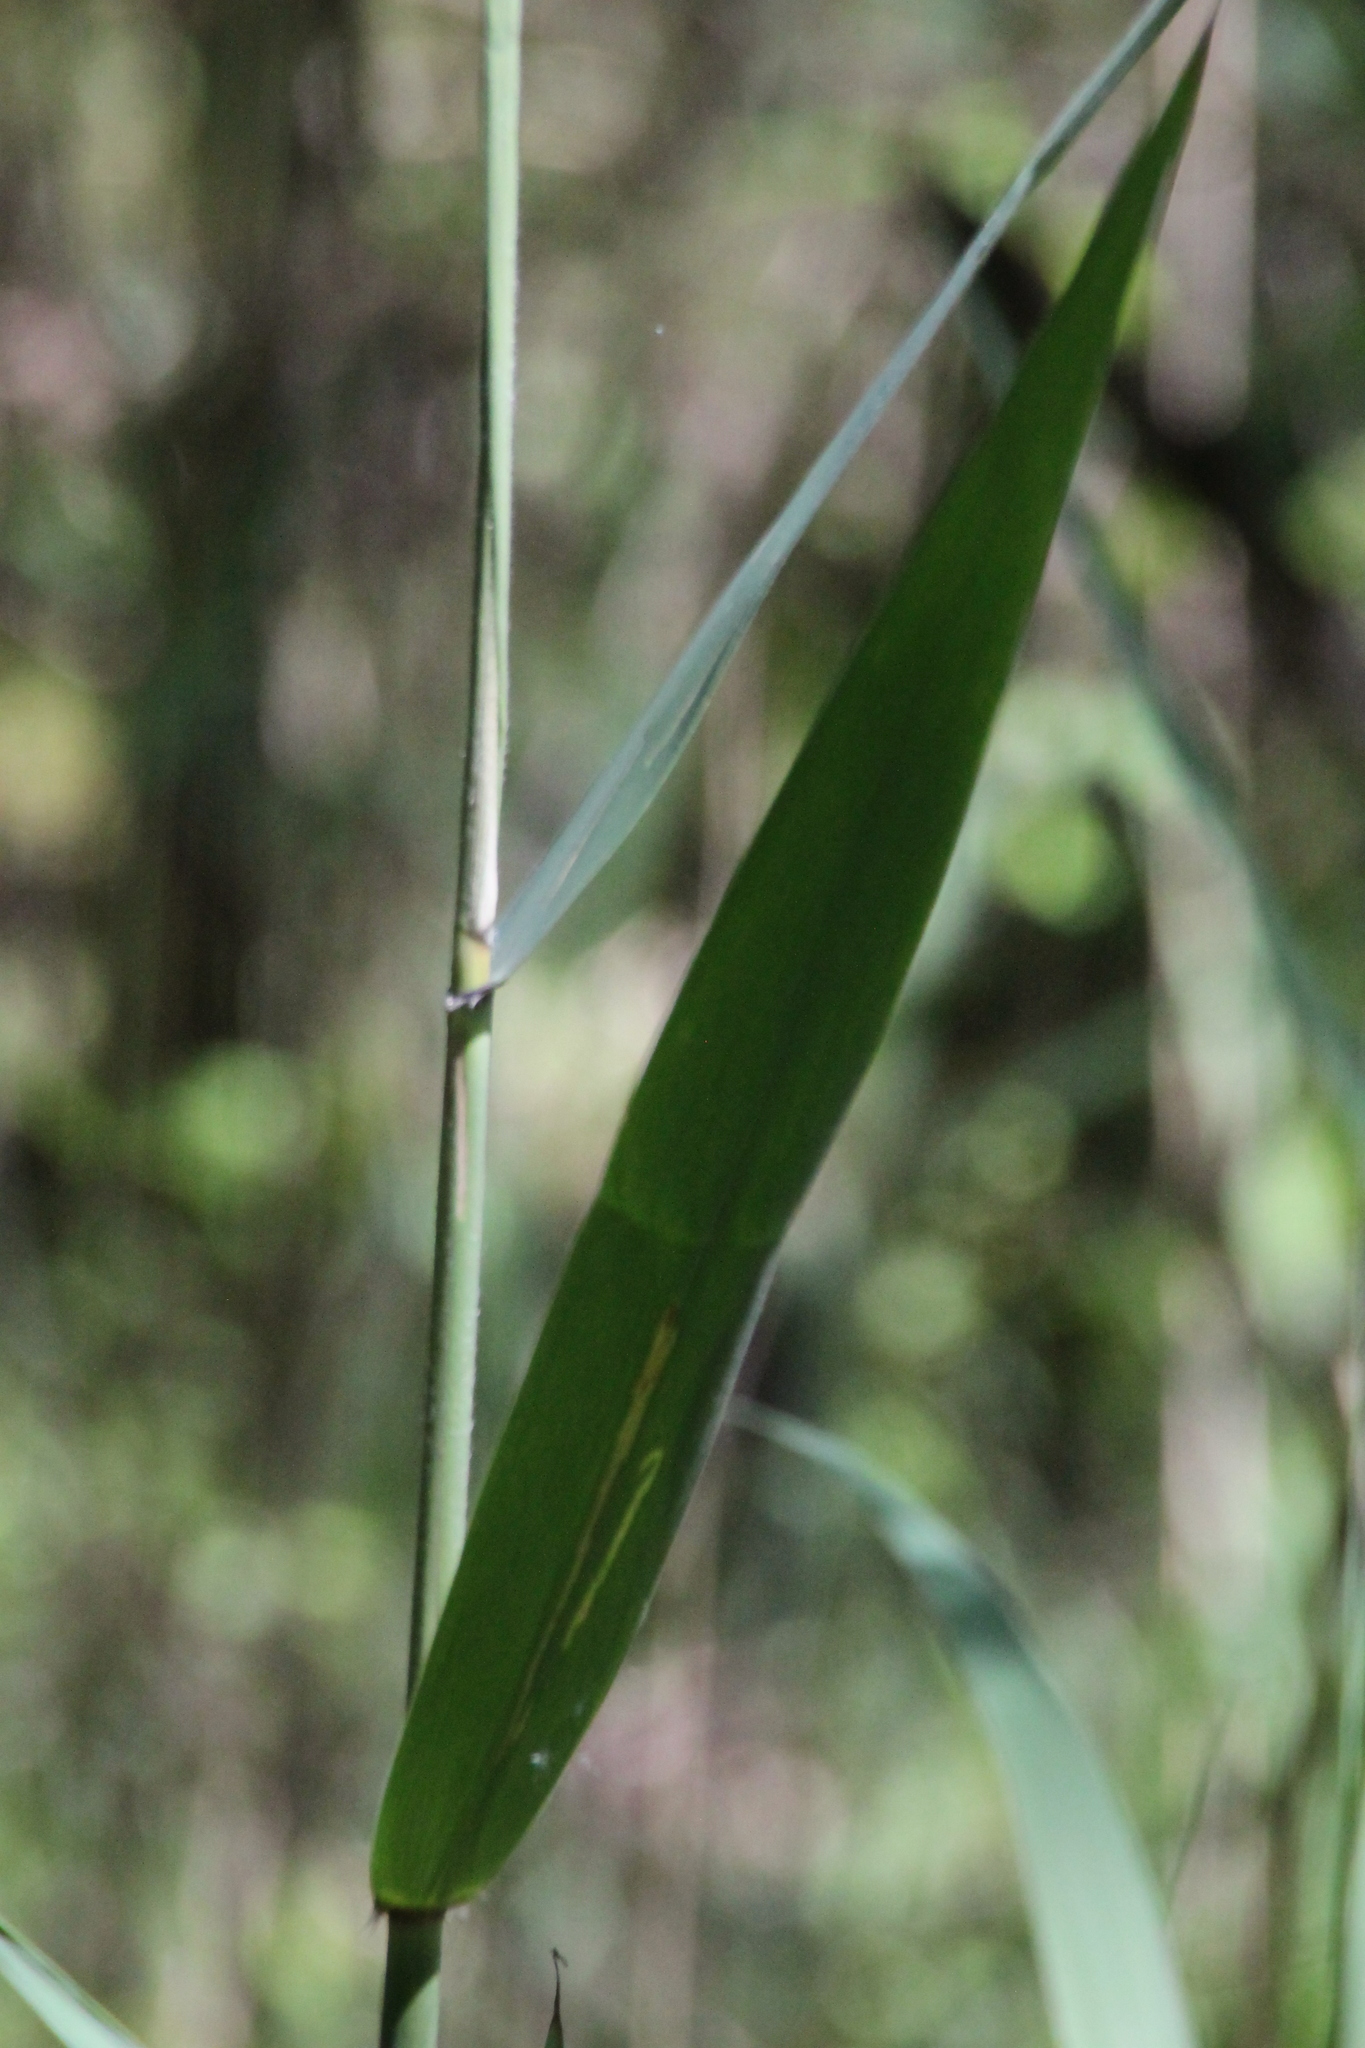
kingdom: Plantae
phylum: Tracheophyta
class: Liliopsida
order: Poales
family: Poaceae
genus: Phragmites
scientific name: Phragmites australis
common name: Common reed
